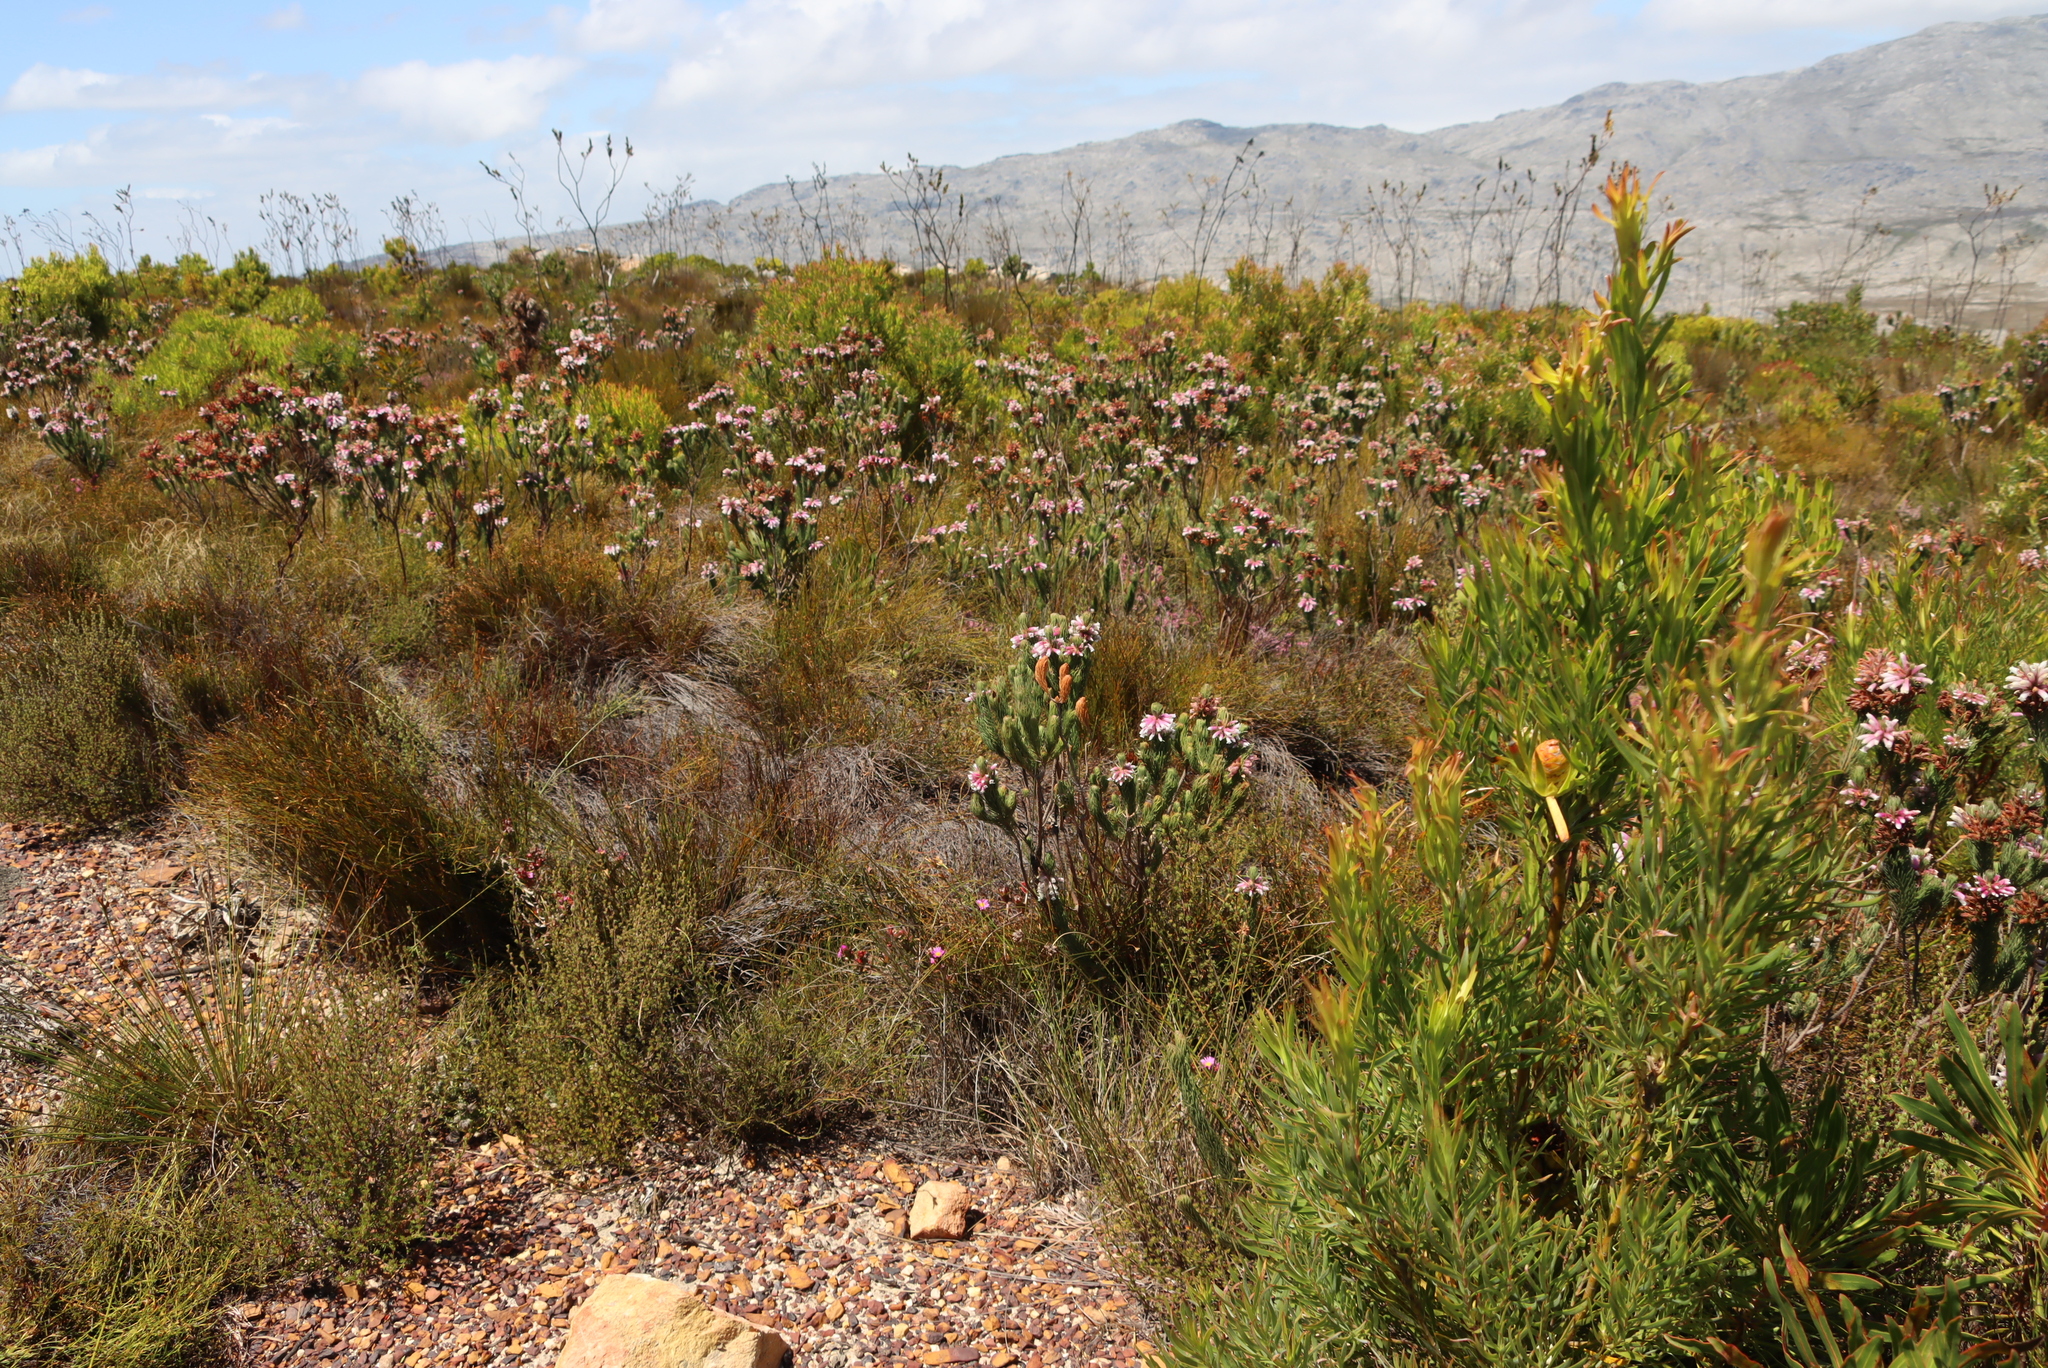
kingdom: Plantae
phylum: Tracheophyta
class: Magnoliopsida
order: Santalales
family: Thesiaceae
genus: Thesium
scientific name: Thesium euphorbioides
